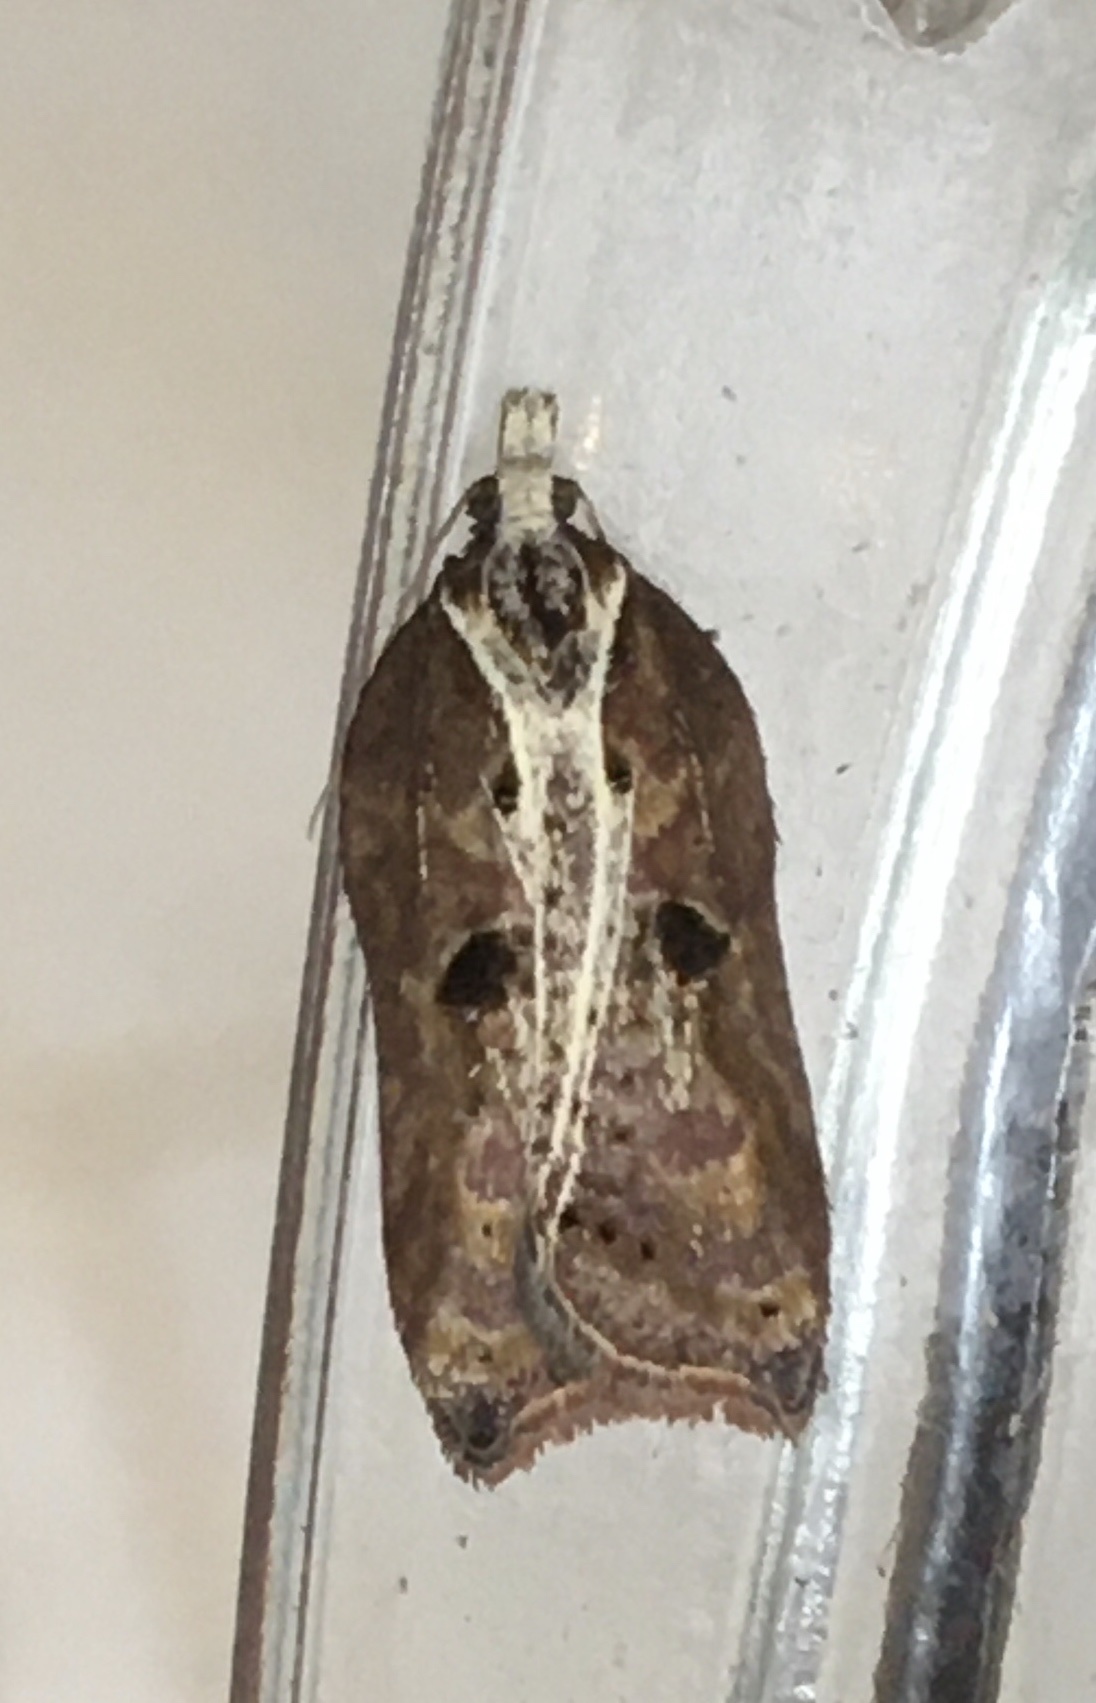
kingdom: Animalia
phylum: Arthropoda
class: Insecta
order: Lepidoptera
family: Tortricidae
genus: Acleris
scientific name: Acleris cristana
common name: Tufted button
